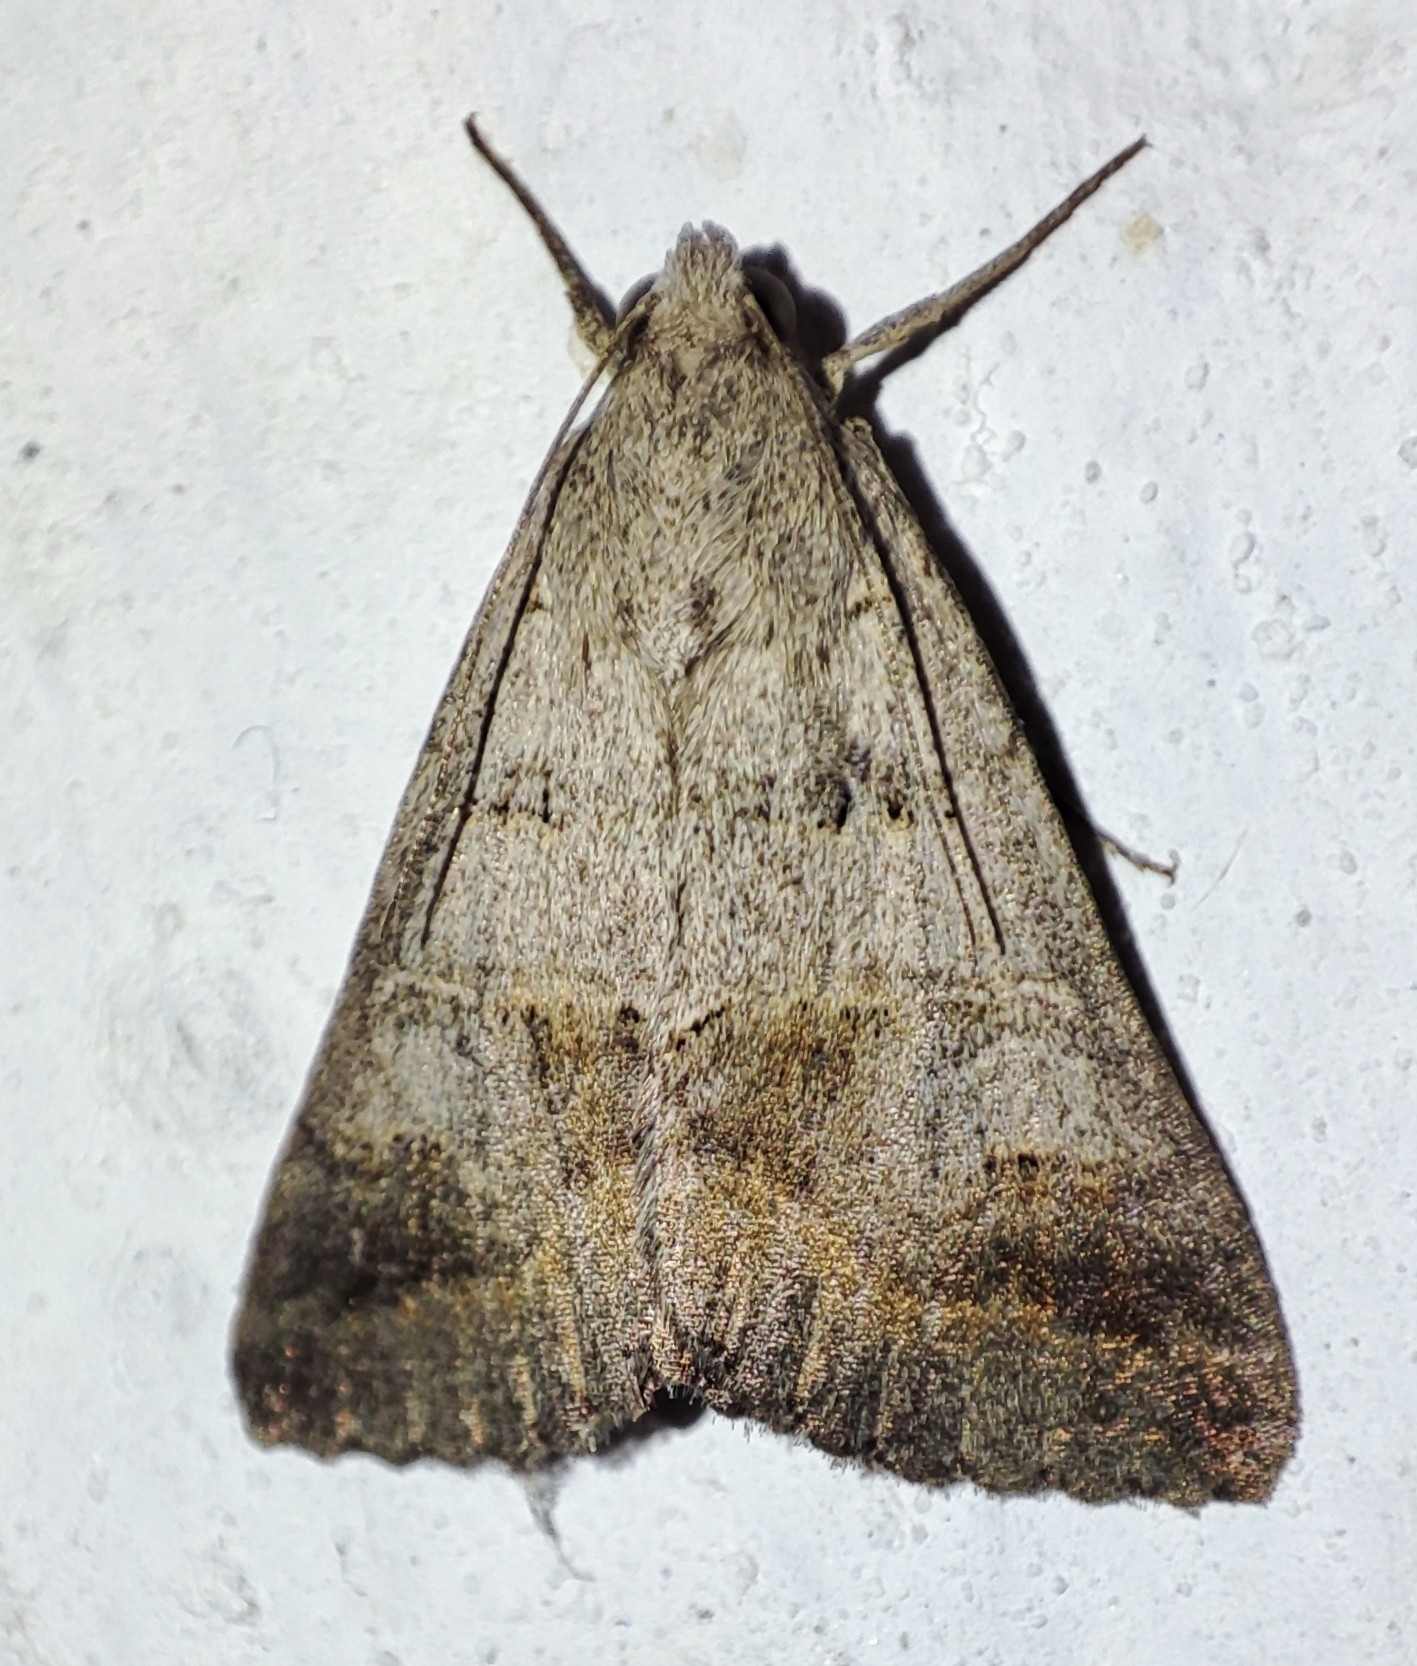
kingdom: Animalia
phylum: Arthropoda
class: Insecta
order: Lepidoptera
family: Erebidae
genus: Drasteria
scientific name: Drasteria caucasica
